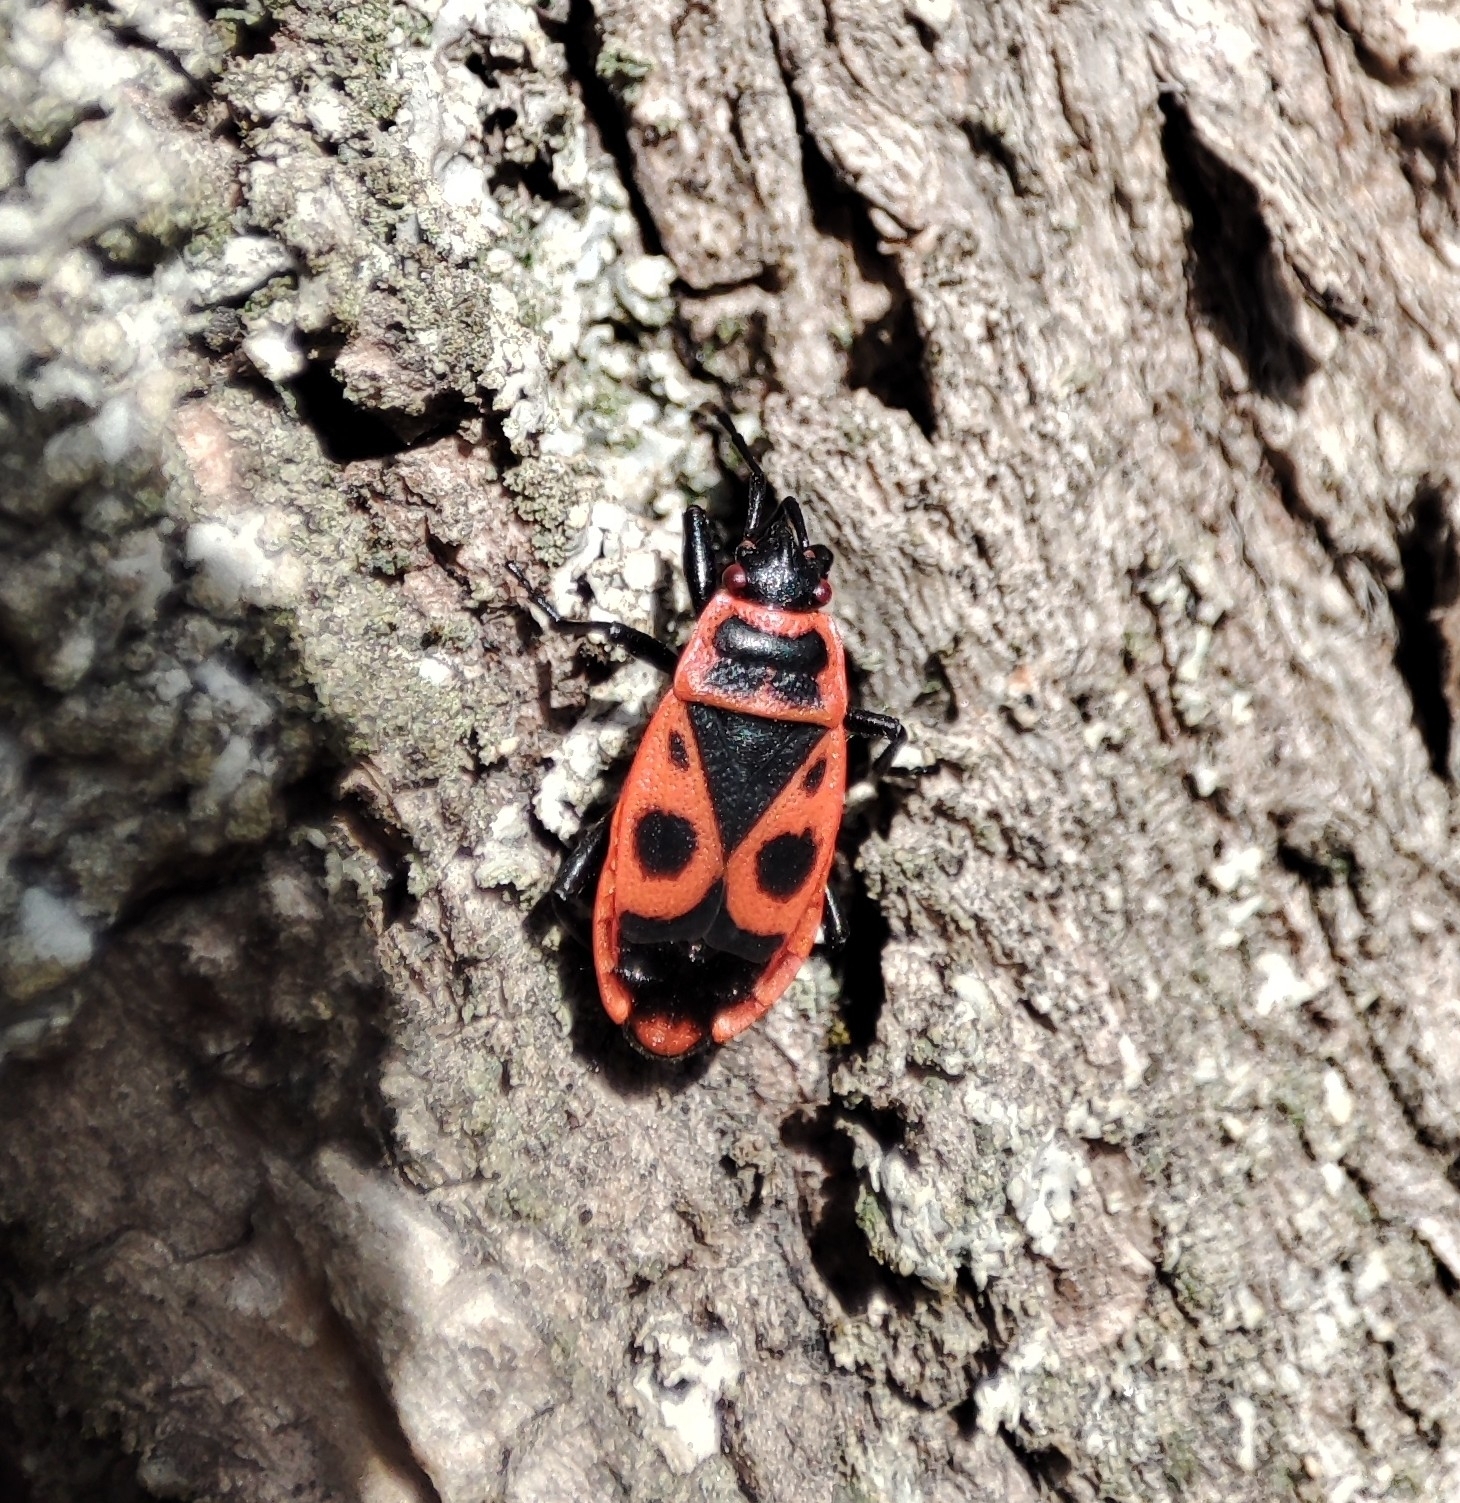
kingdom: Animalia
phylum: Arthropoda
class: Insecta
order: Hemiptera
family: Pyrrhocoridae
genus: Pyrrhocoris
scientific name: Pyrrhocoris apterus
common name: Firebug
